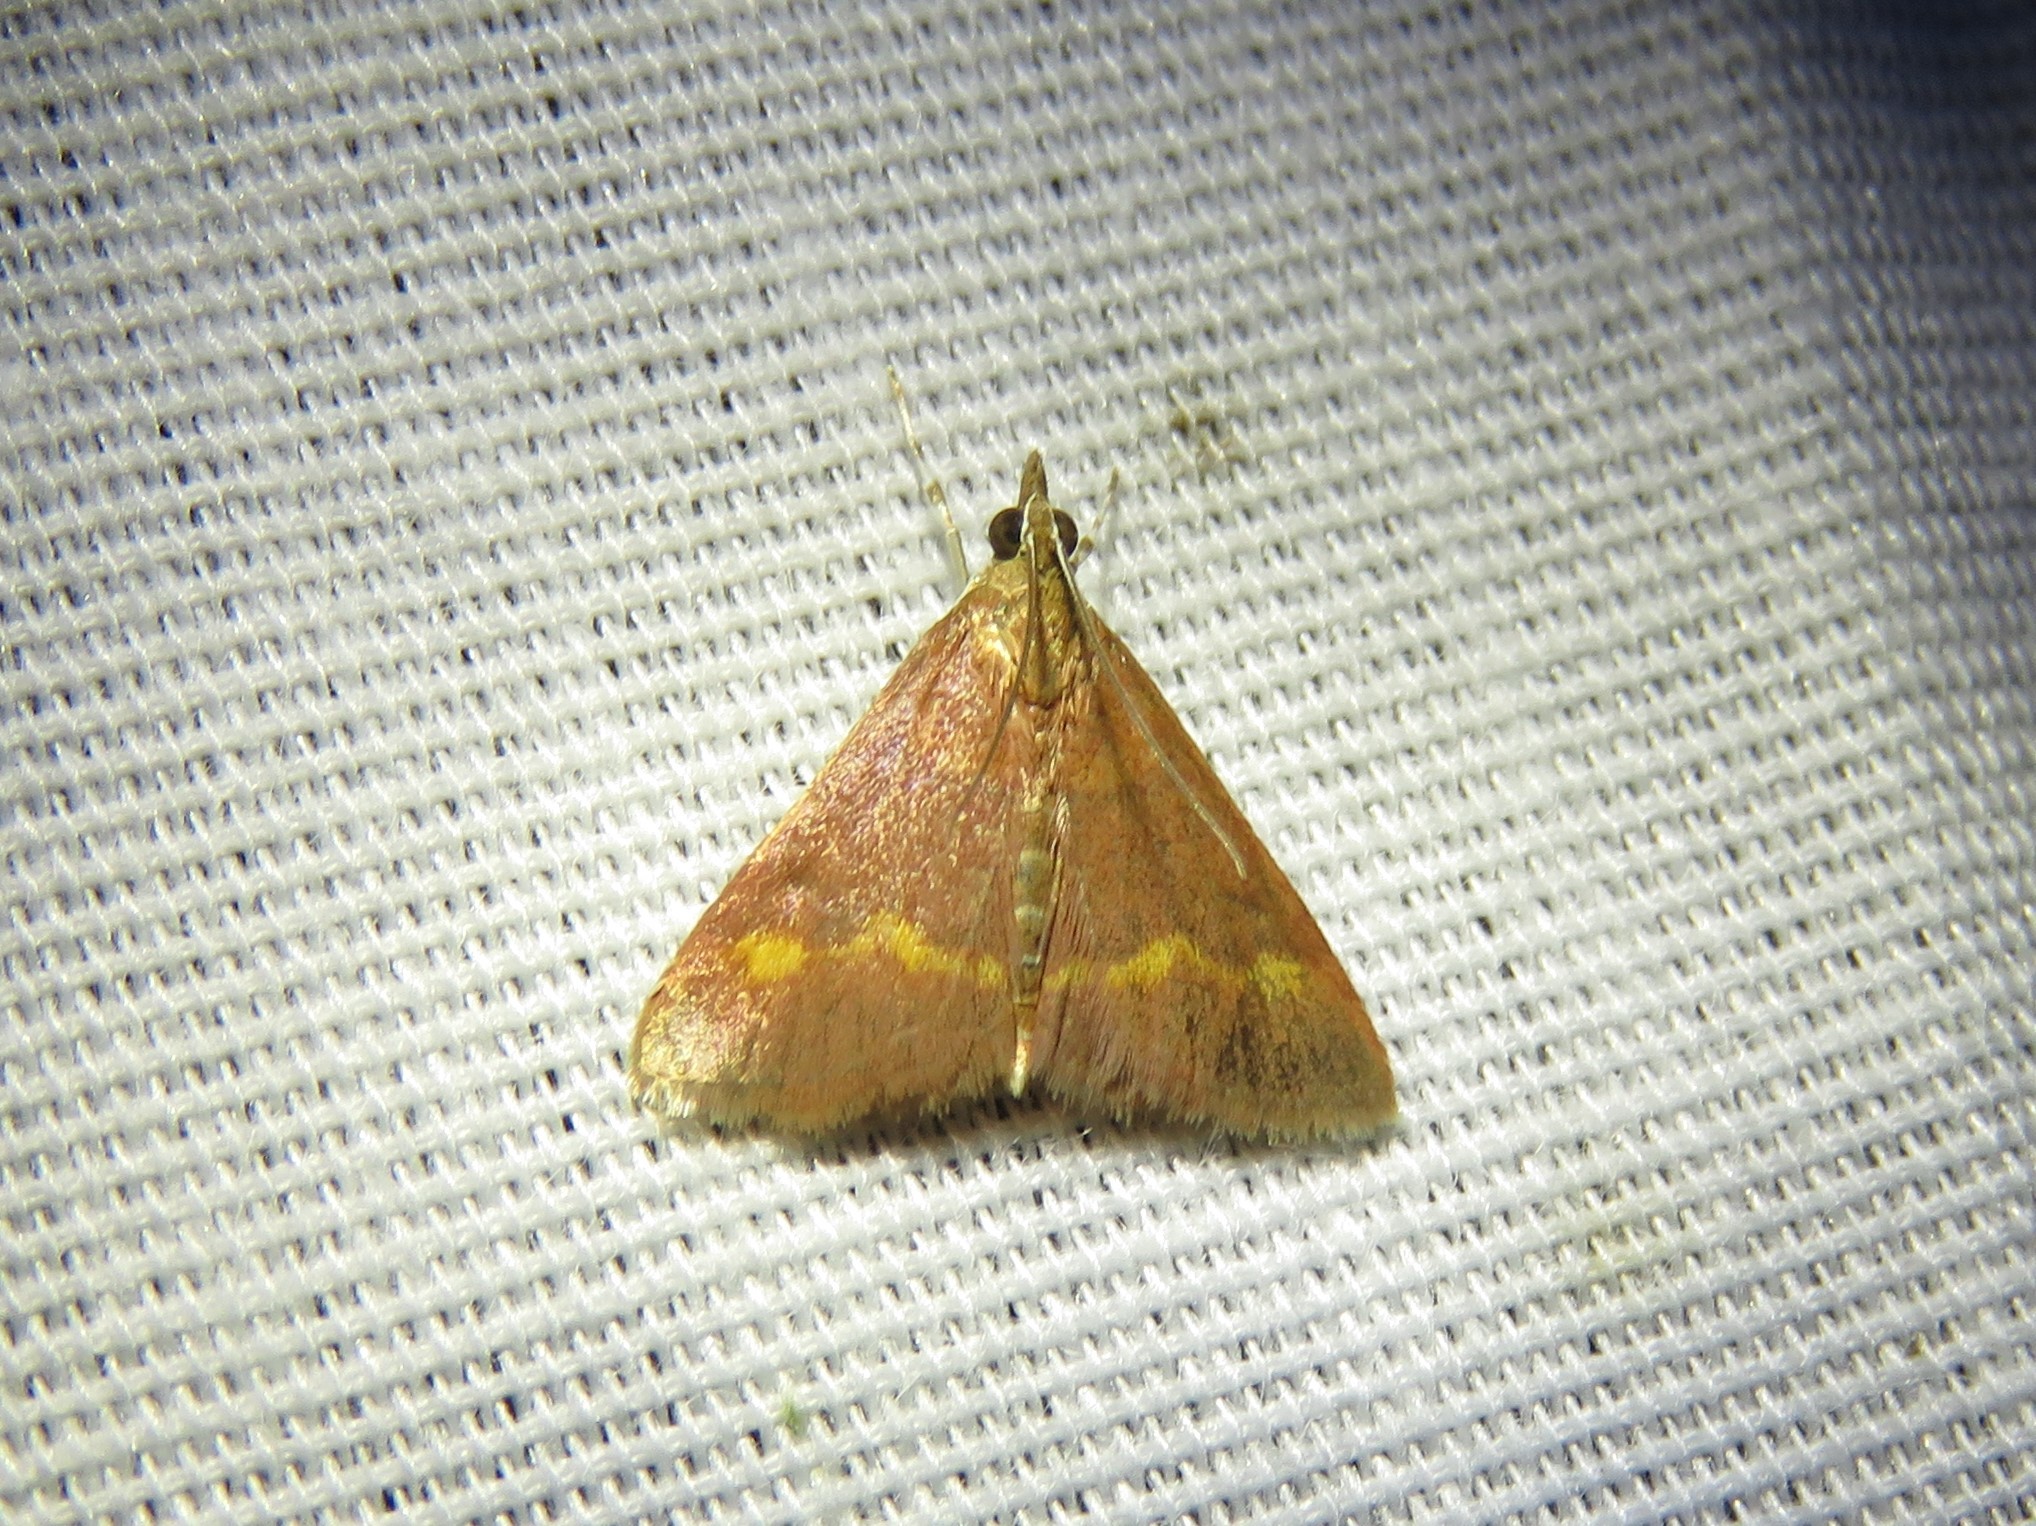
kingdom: Animalia
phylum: Arthropoda
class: Insecta
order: Lepidoptera
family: Crambidae
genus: Pyrausta
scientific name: Pyrausta pseuderosnealis
